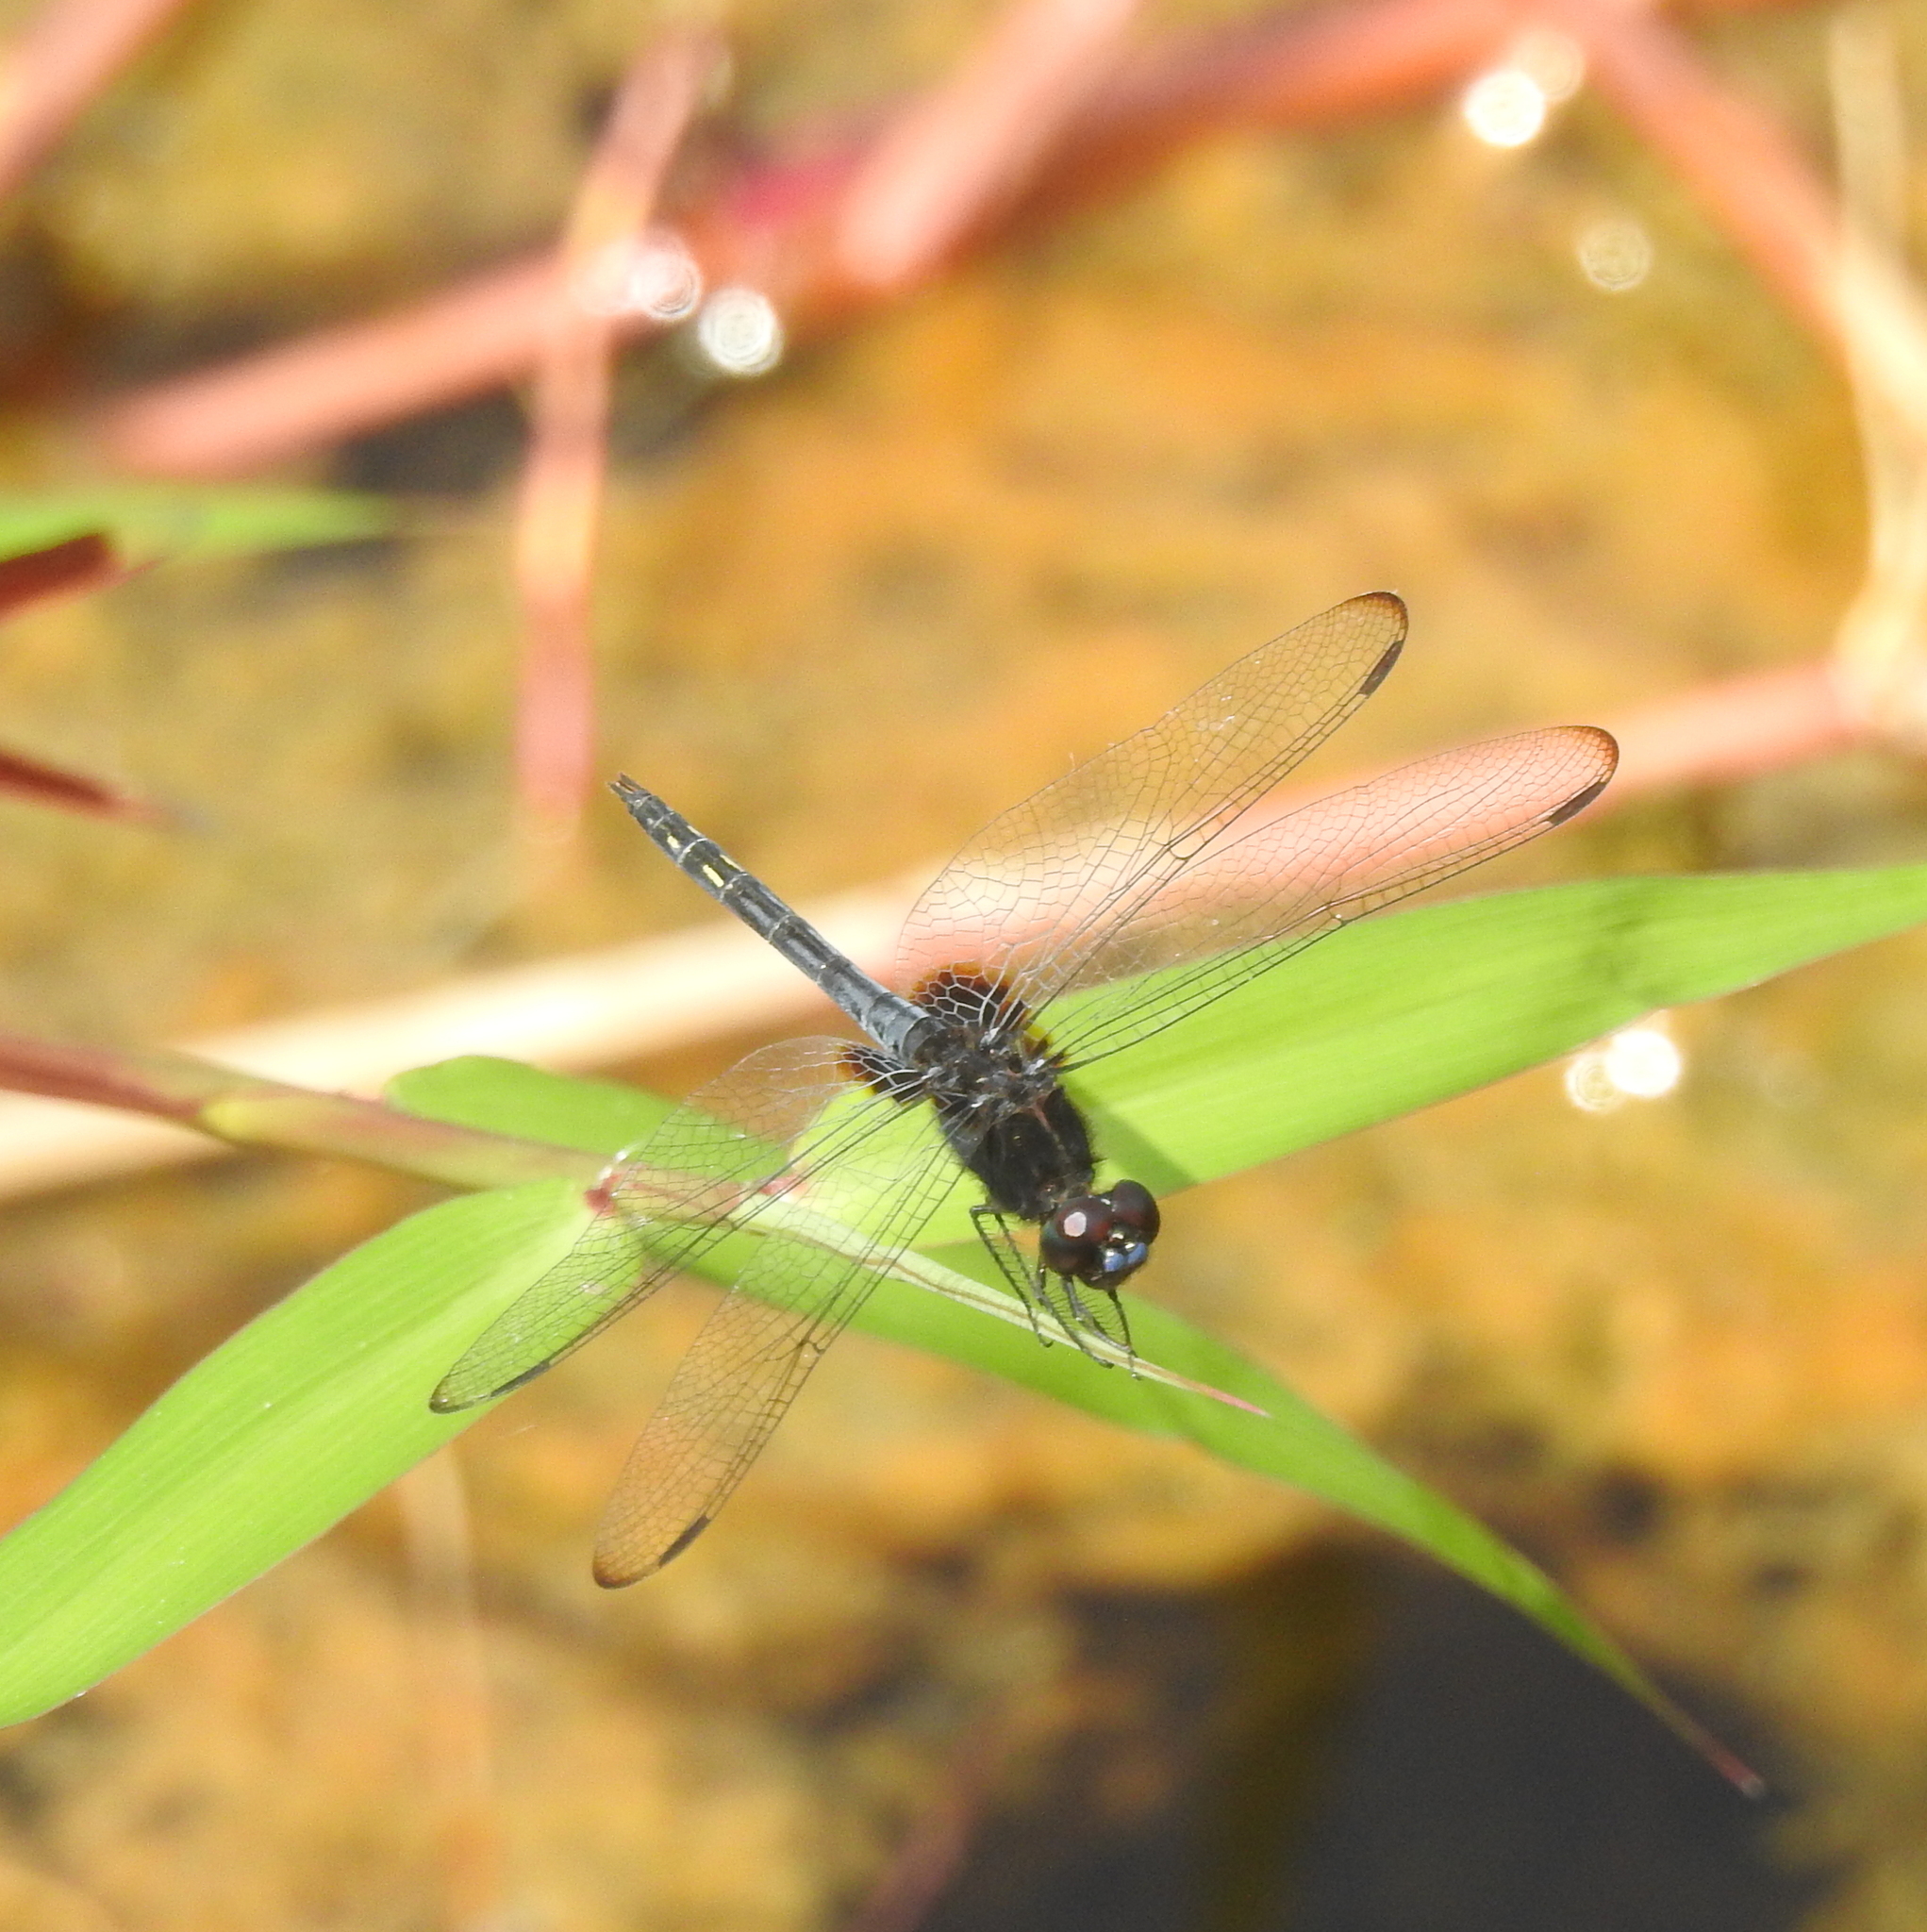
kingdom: Animalia
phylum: Arthropoda
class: Insecta
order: Odonata
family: Libellulidae
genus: Indothemis
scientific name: Indothemis limbata
